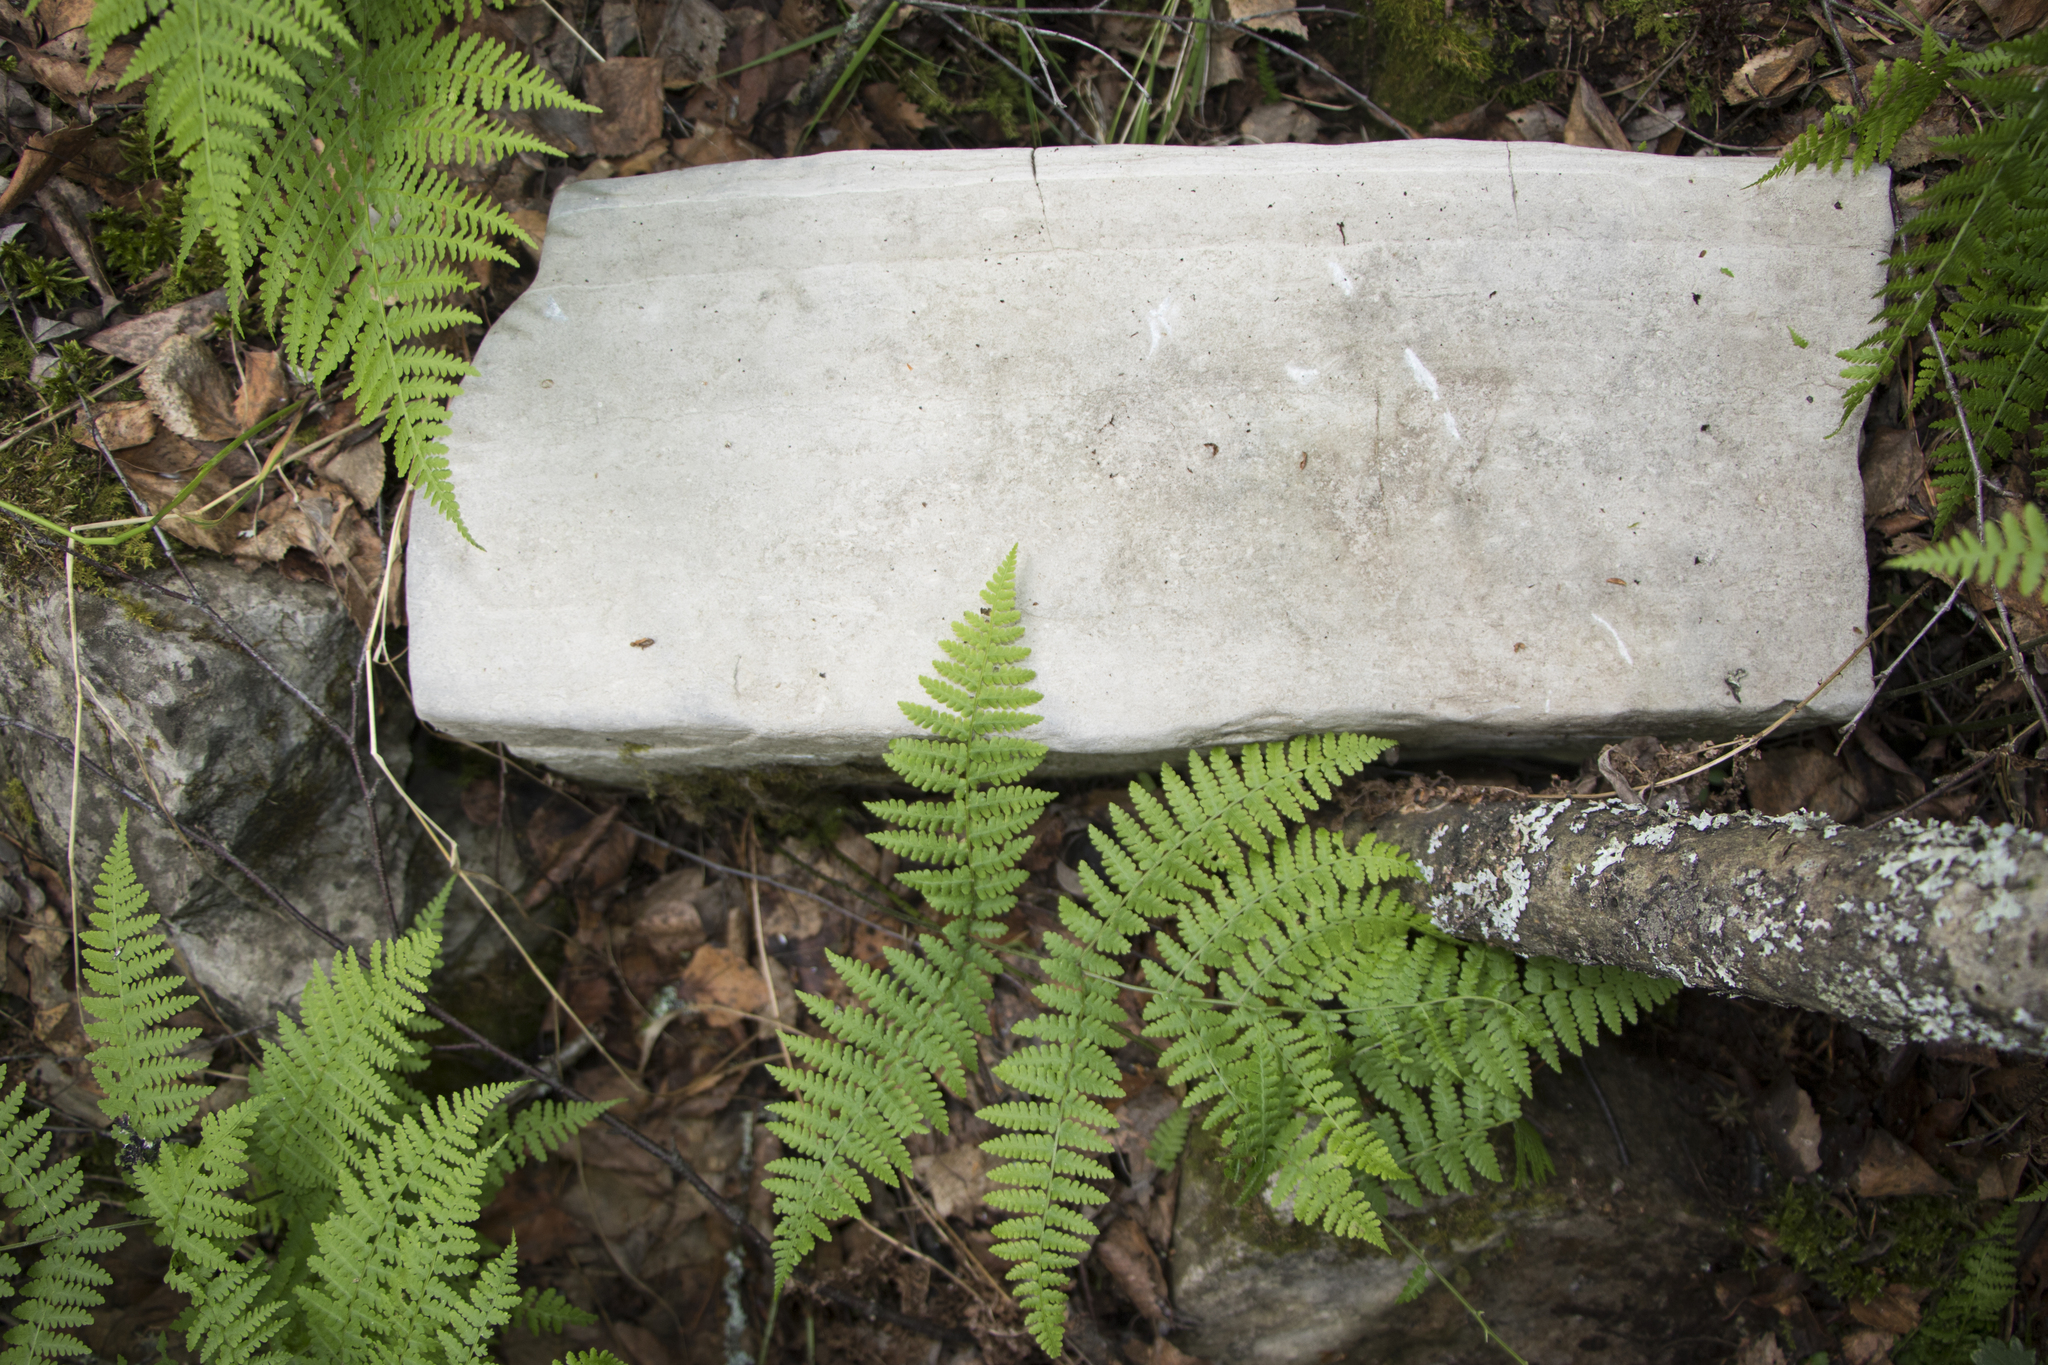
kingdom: Plantae
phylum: Tracheophyta
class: Polypodiopsida
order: Polypodiales
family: Athyriaceae
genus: Diplazium
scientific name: Diplazium sibiricum
